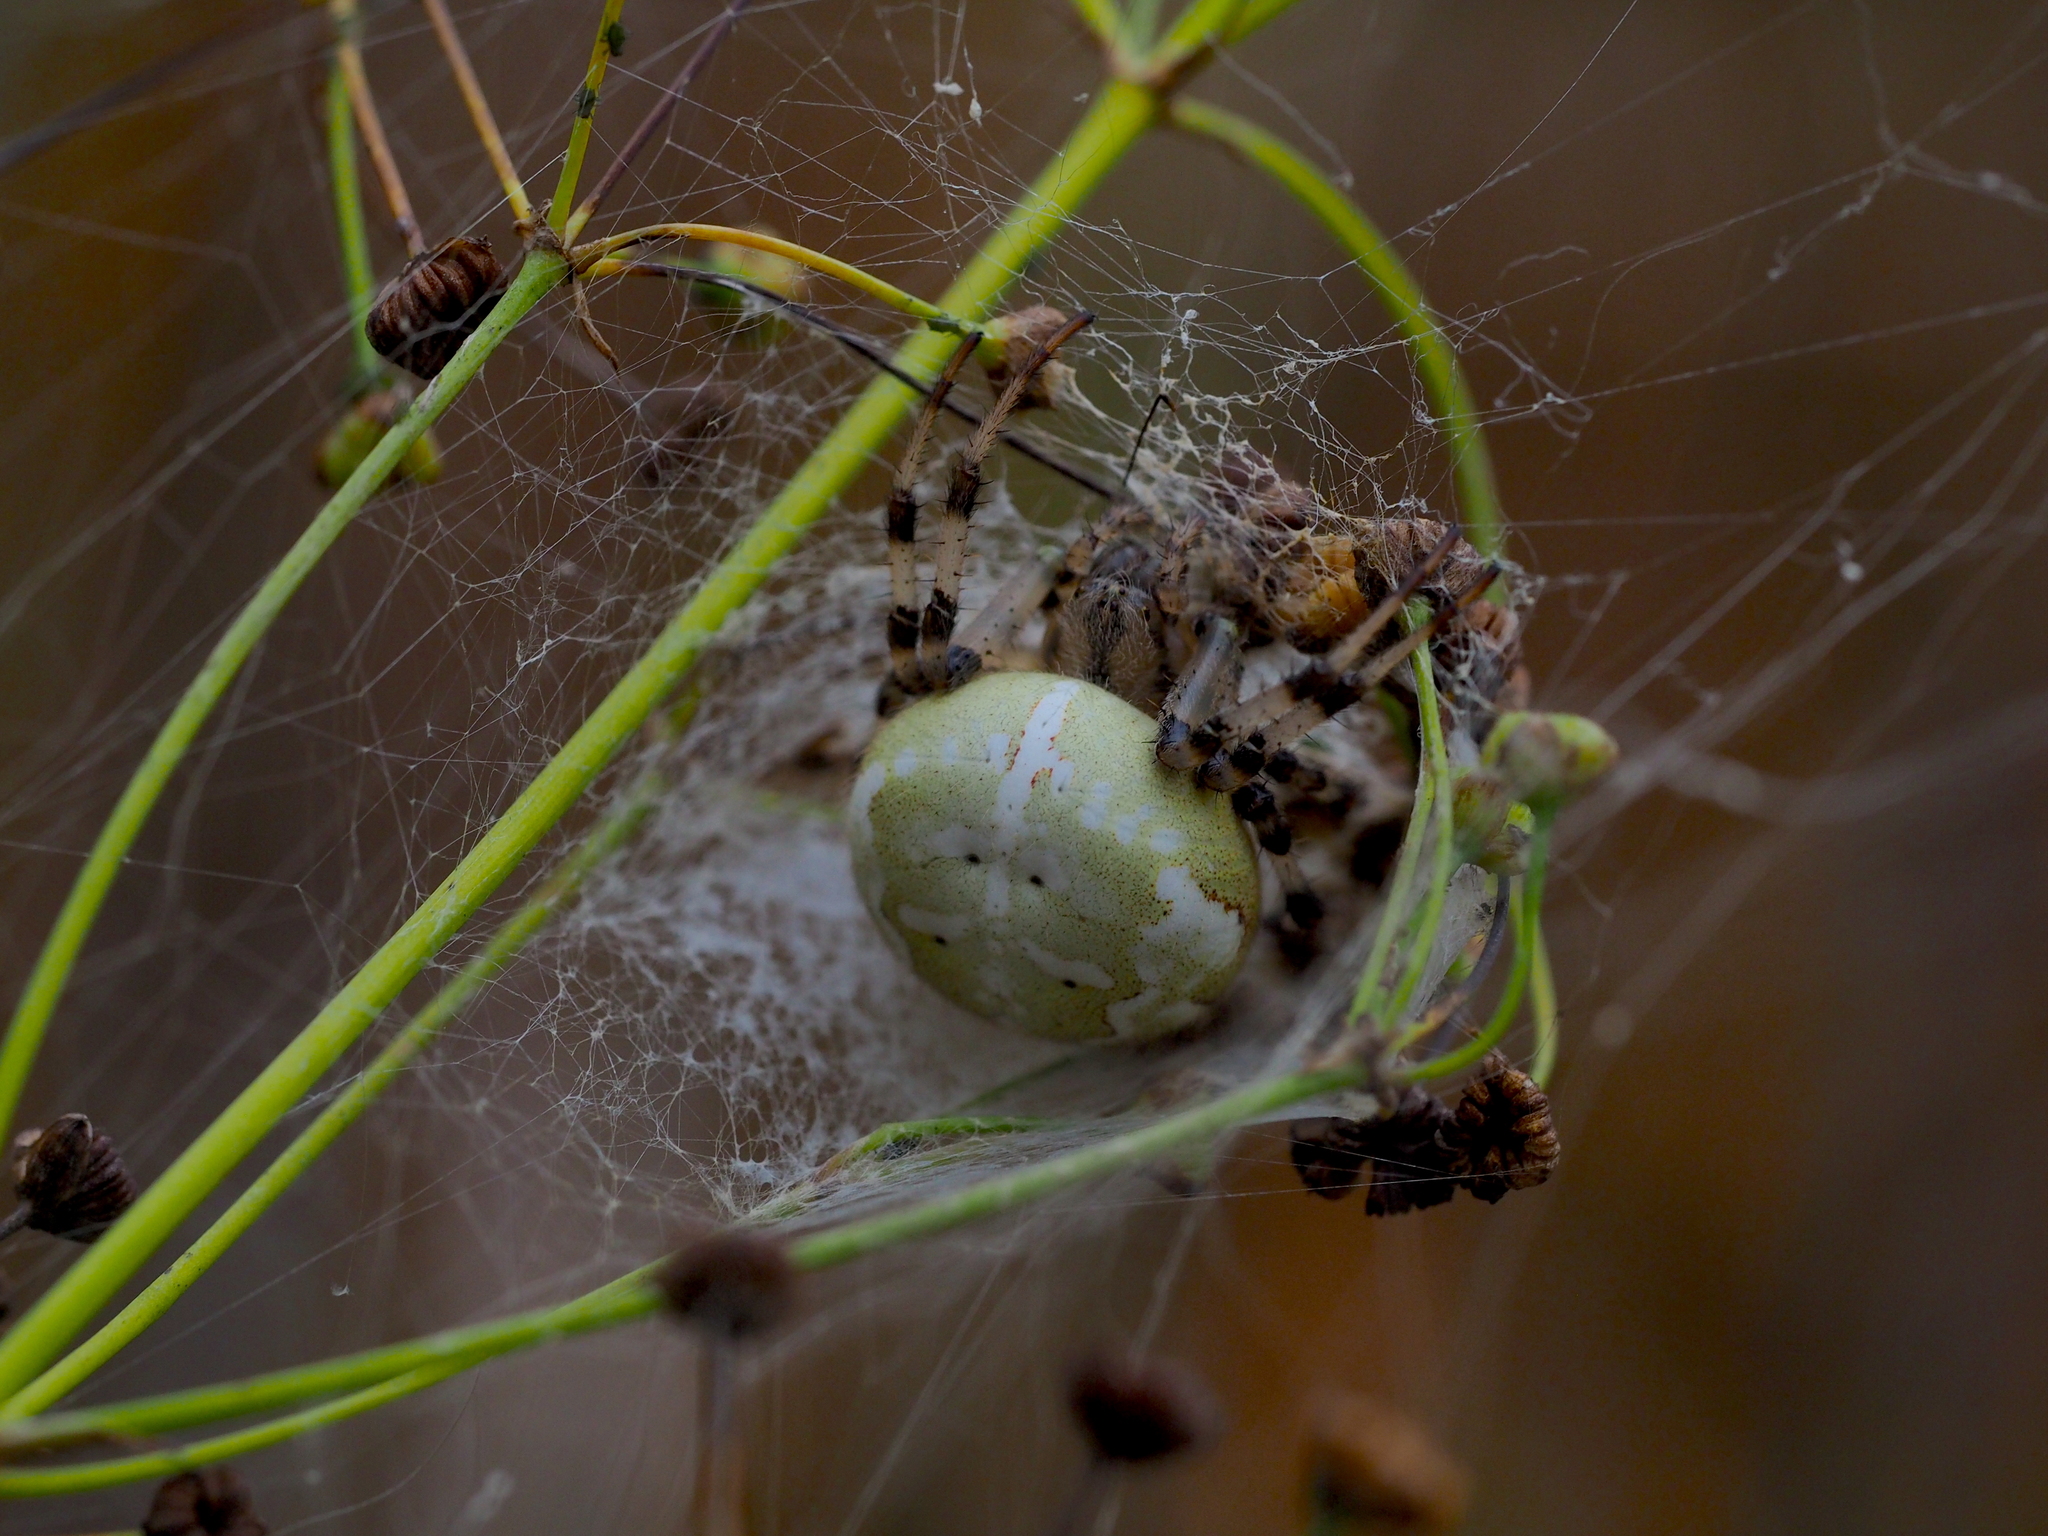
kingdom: Animalia
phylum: Arthropoda
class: Arachnida
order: Araneae
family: Araneidae
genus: Araneus
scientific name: Araneus quadratus
